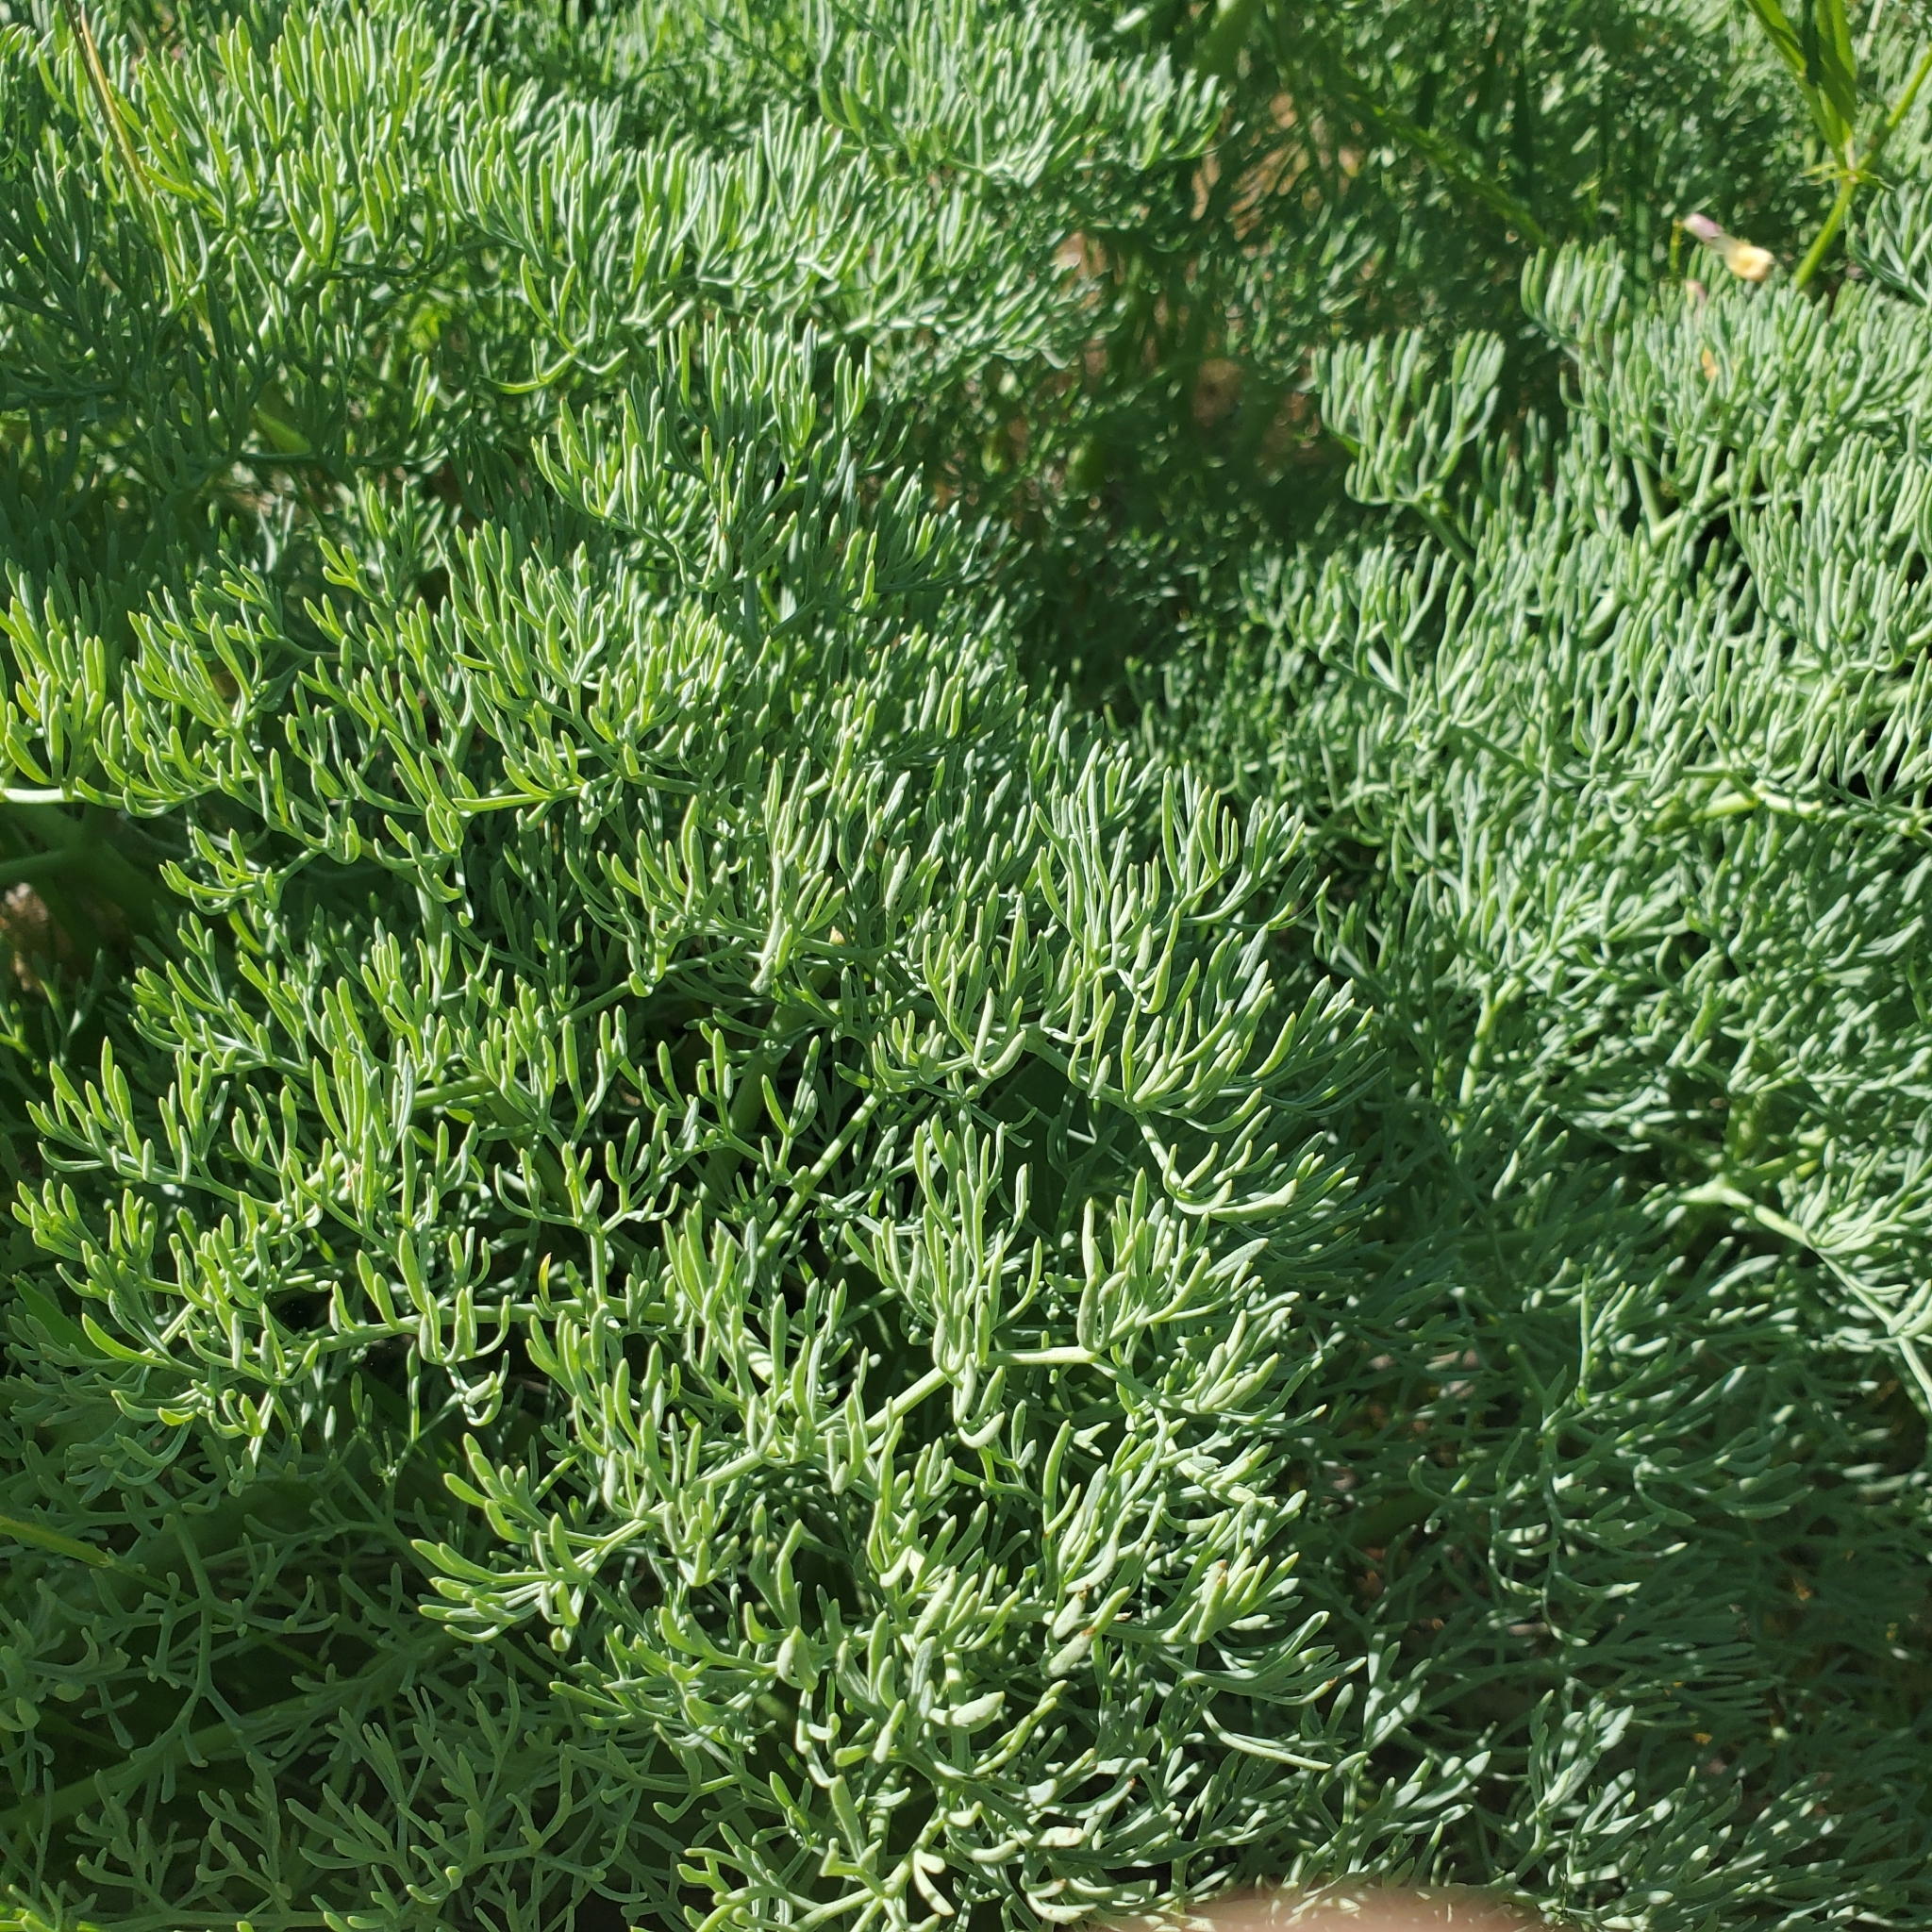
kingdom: Plantae
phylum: Tracheophyta
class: Magnoliopsida
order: Apiales
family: Apiaceae
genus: Lomatium
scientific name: Lomatium columbianum
